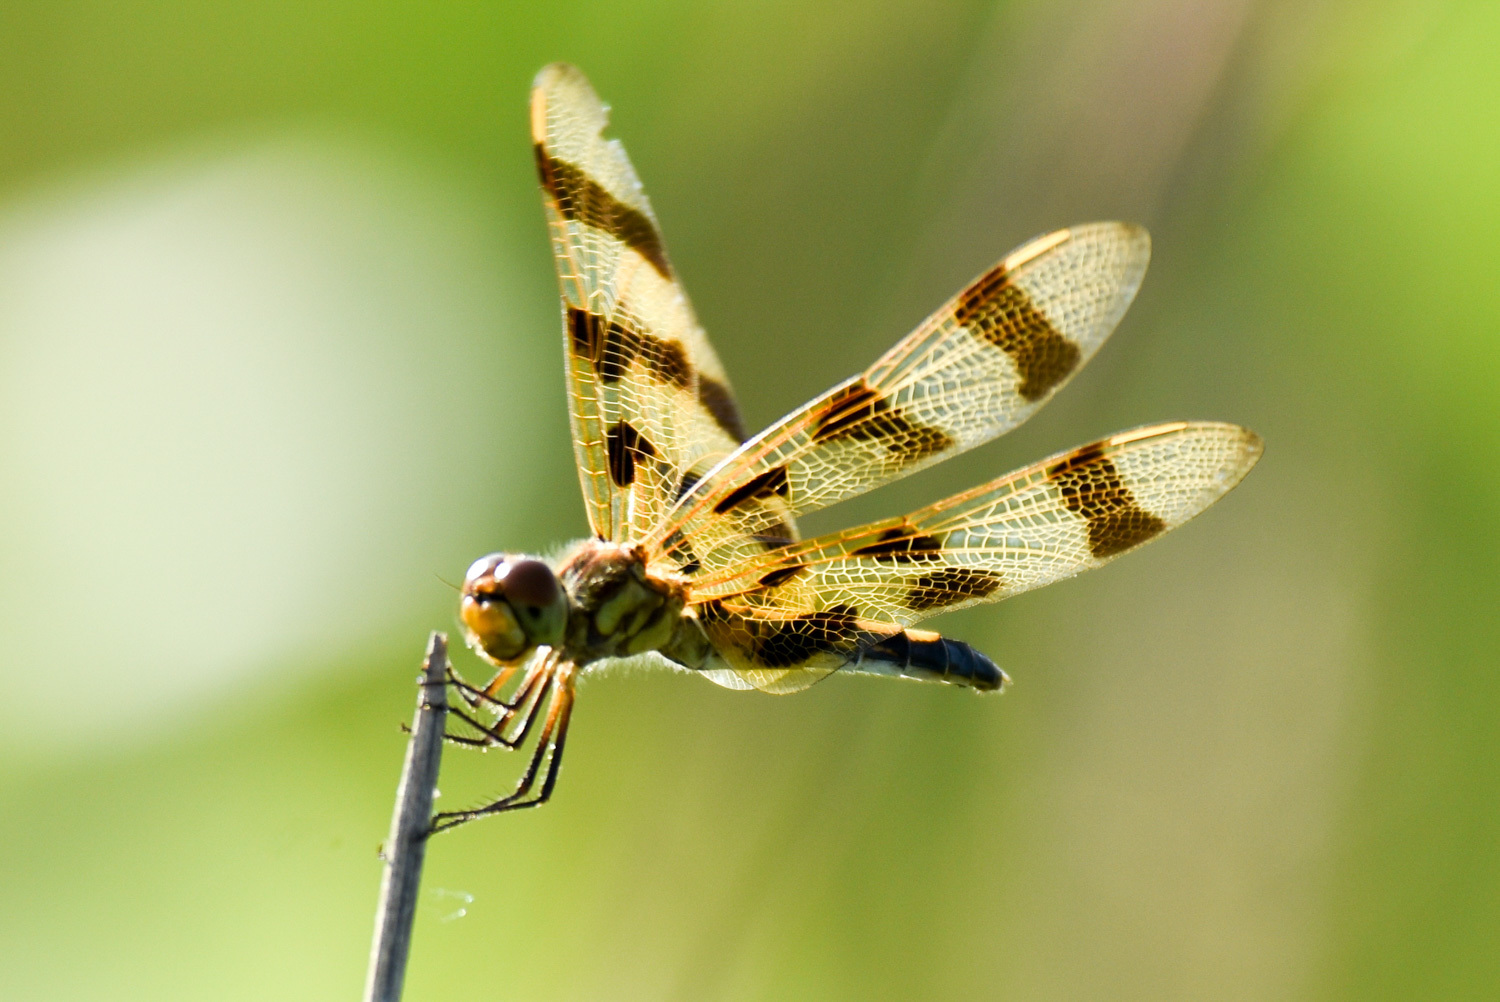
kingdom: Animalia
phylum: Arthropoda
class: Insecta
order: Odonata
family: Libellulidae
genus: Celithemis
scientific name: Celithemis eponina
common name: Halloween pennant
